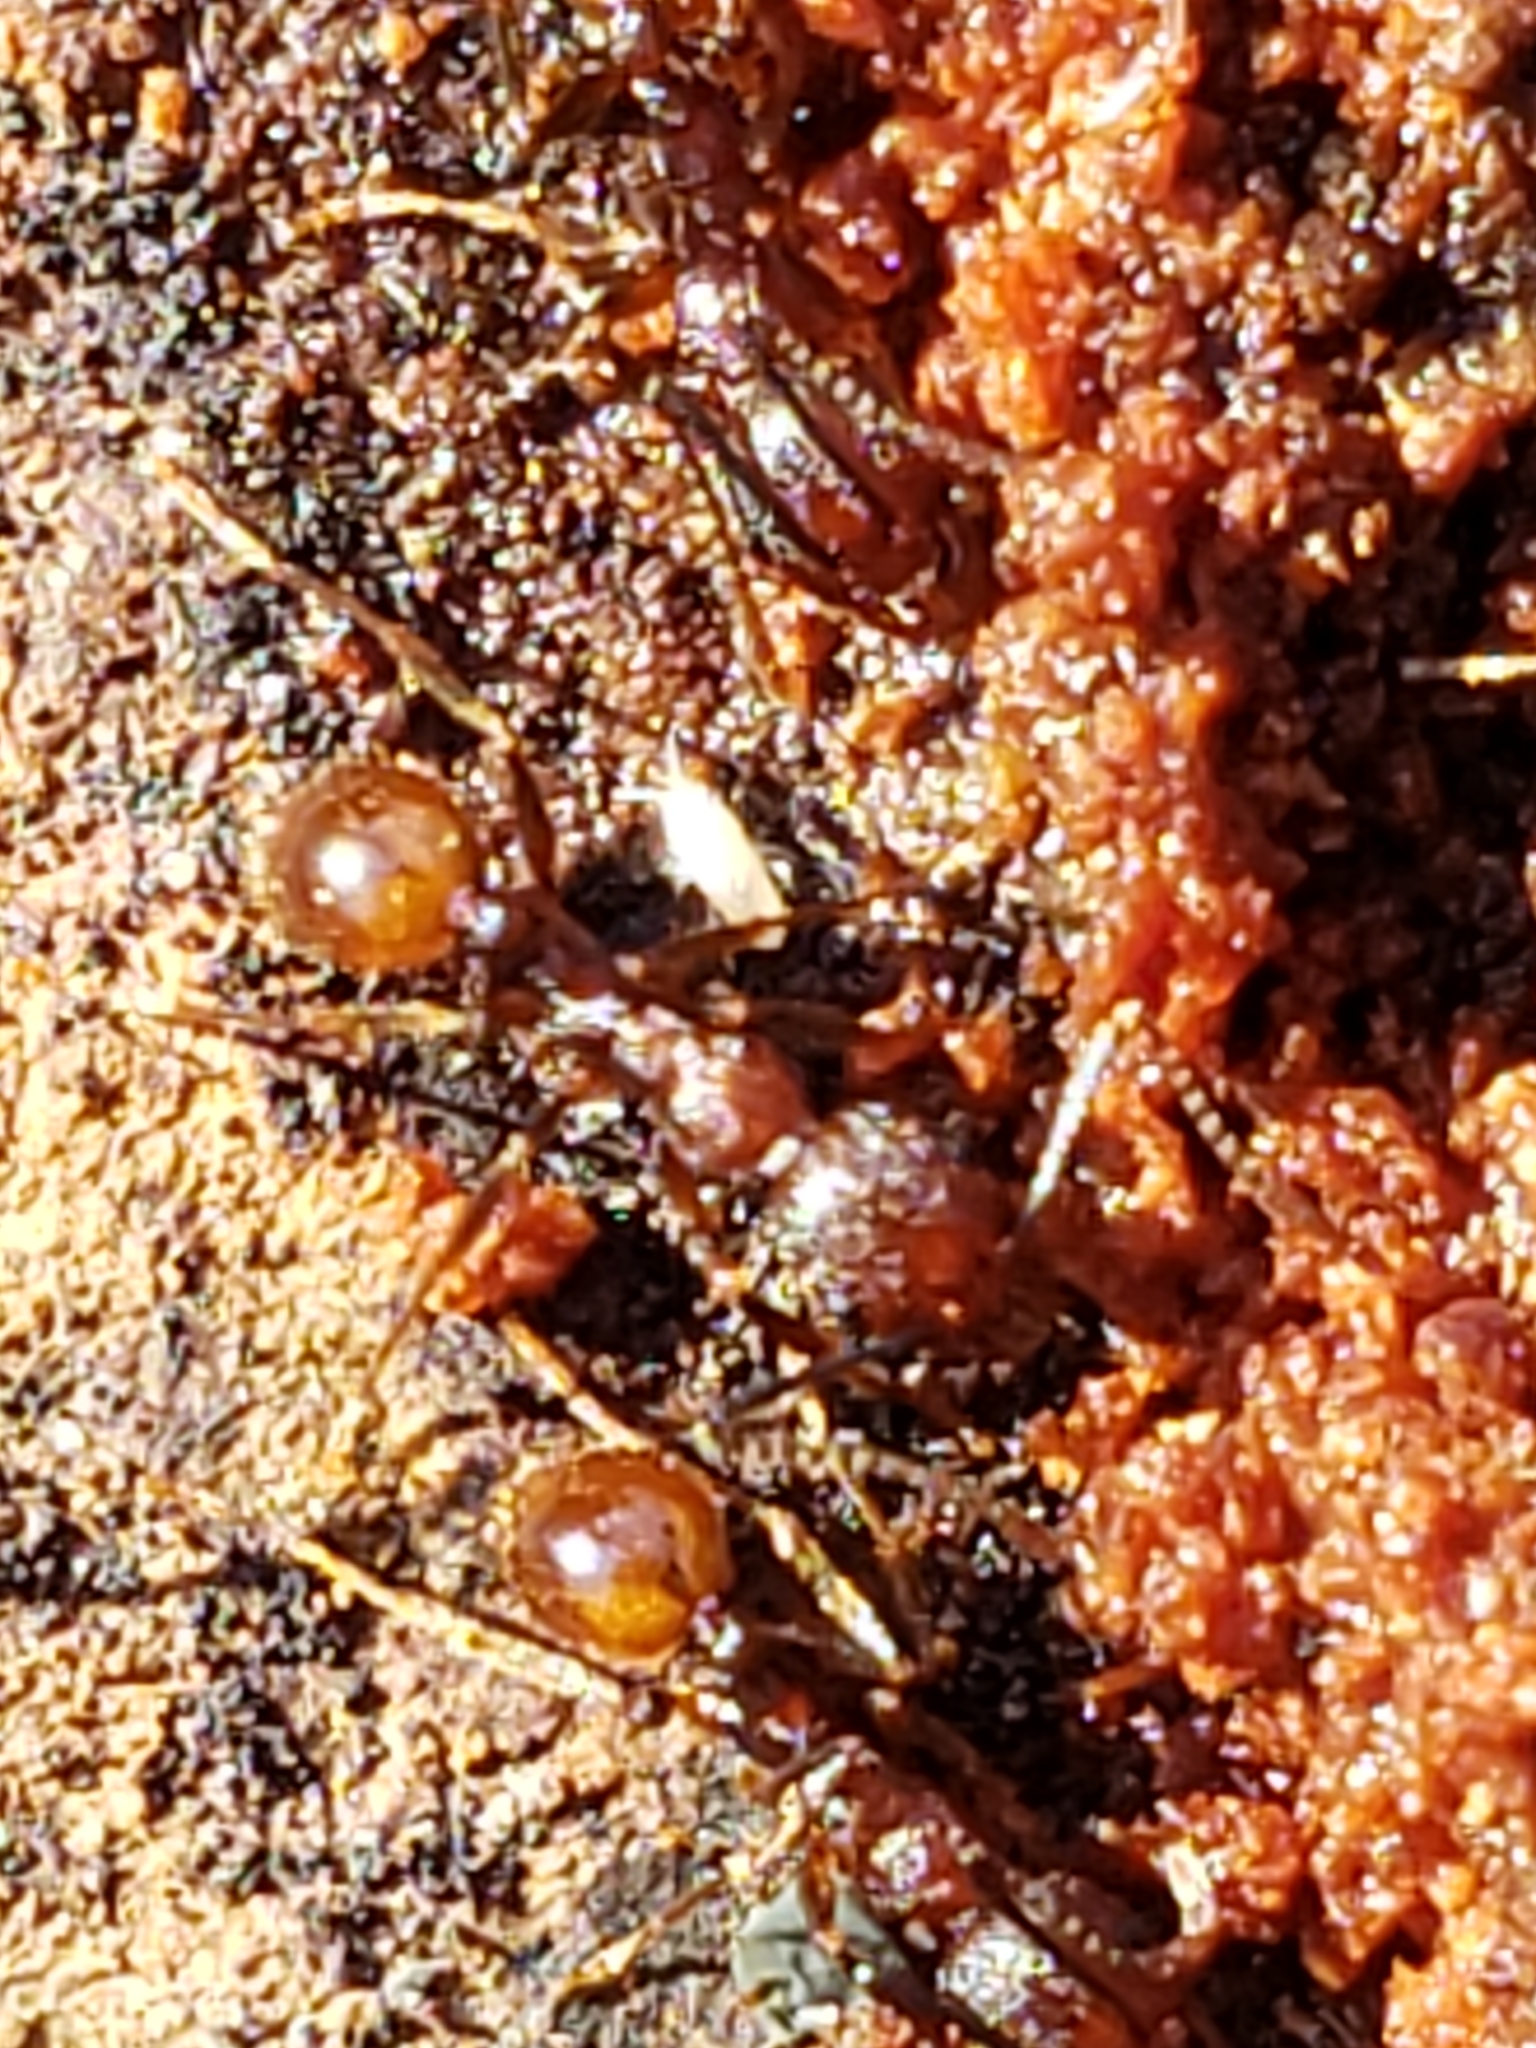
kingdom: Animalia
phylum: Arthropoda
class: Insecta
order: Hymenoptera
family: Formicidae
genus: Aphaenogaster
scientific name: Aphaenogaster fulva
